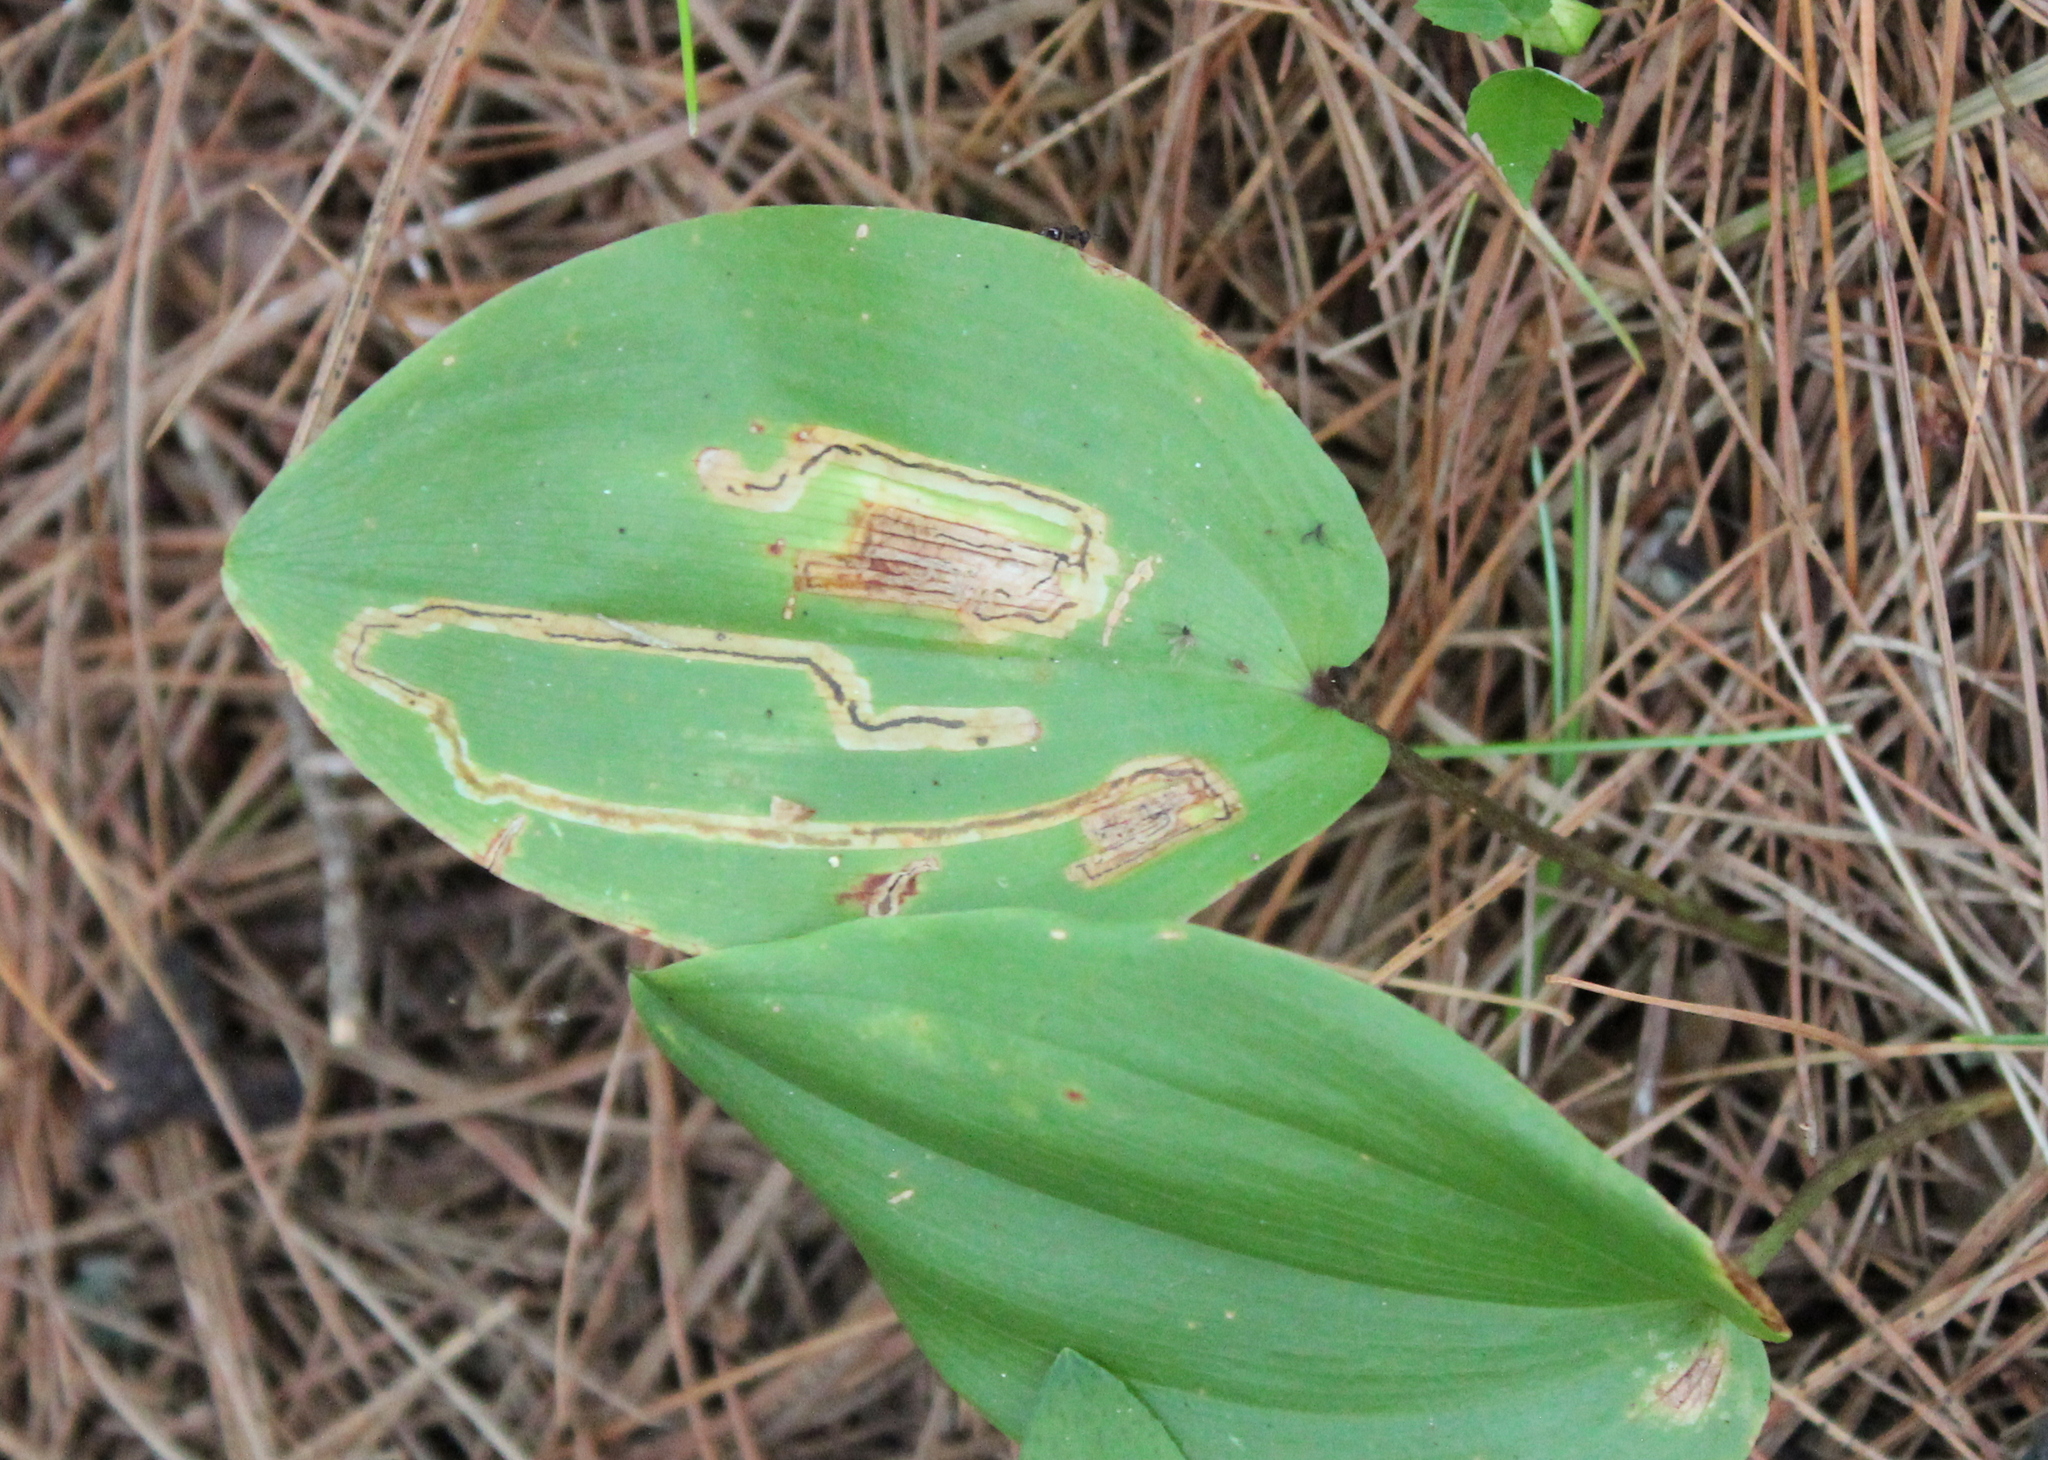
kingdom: Plantae
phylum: Tracheophyta
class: Liliopsida
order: Asparagales
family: Asparagaceae
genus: Maianthemum
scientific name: Maianthemum canadense
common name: False lily-of-the-valley
